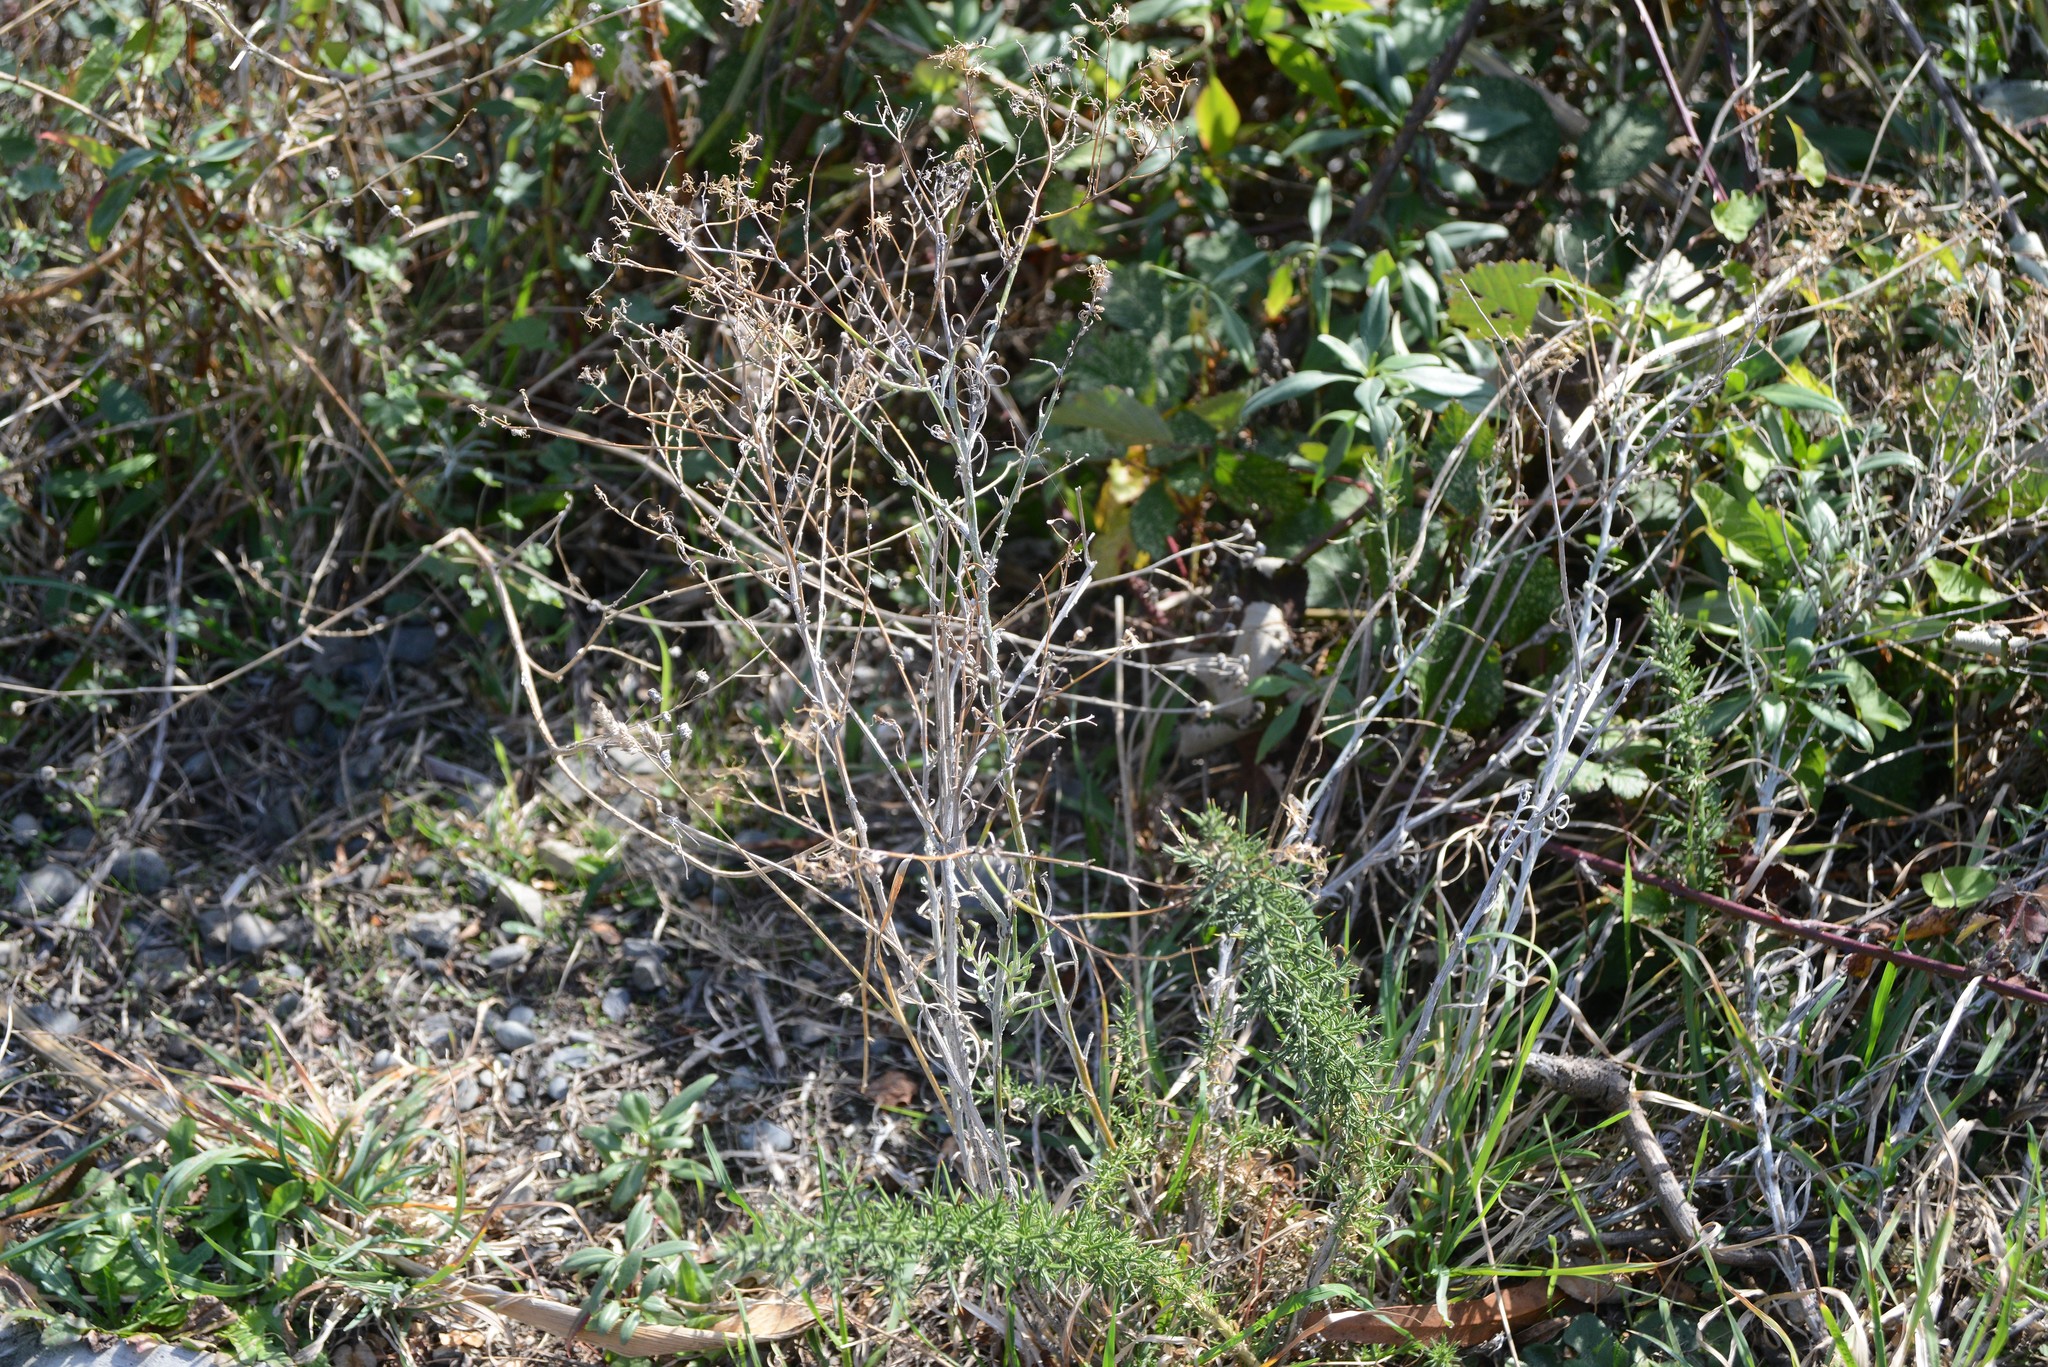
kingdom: Plantae
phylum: Tracheophyta
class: Magnoliopsida
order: Asterales
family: Asteraceae
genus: Senecio
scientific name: Senecio quadridentatus
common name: Cotton fireweed
